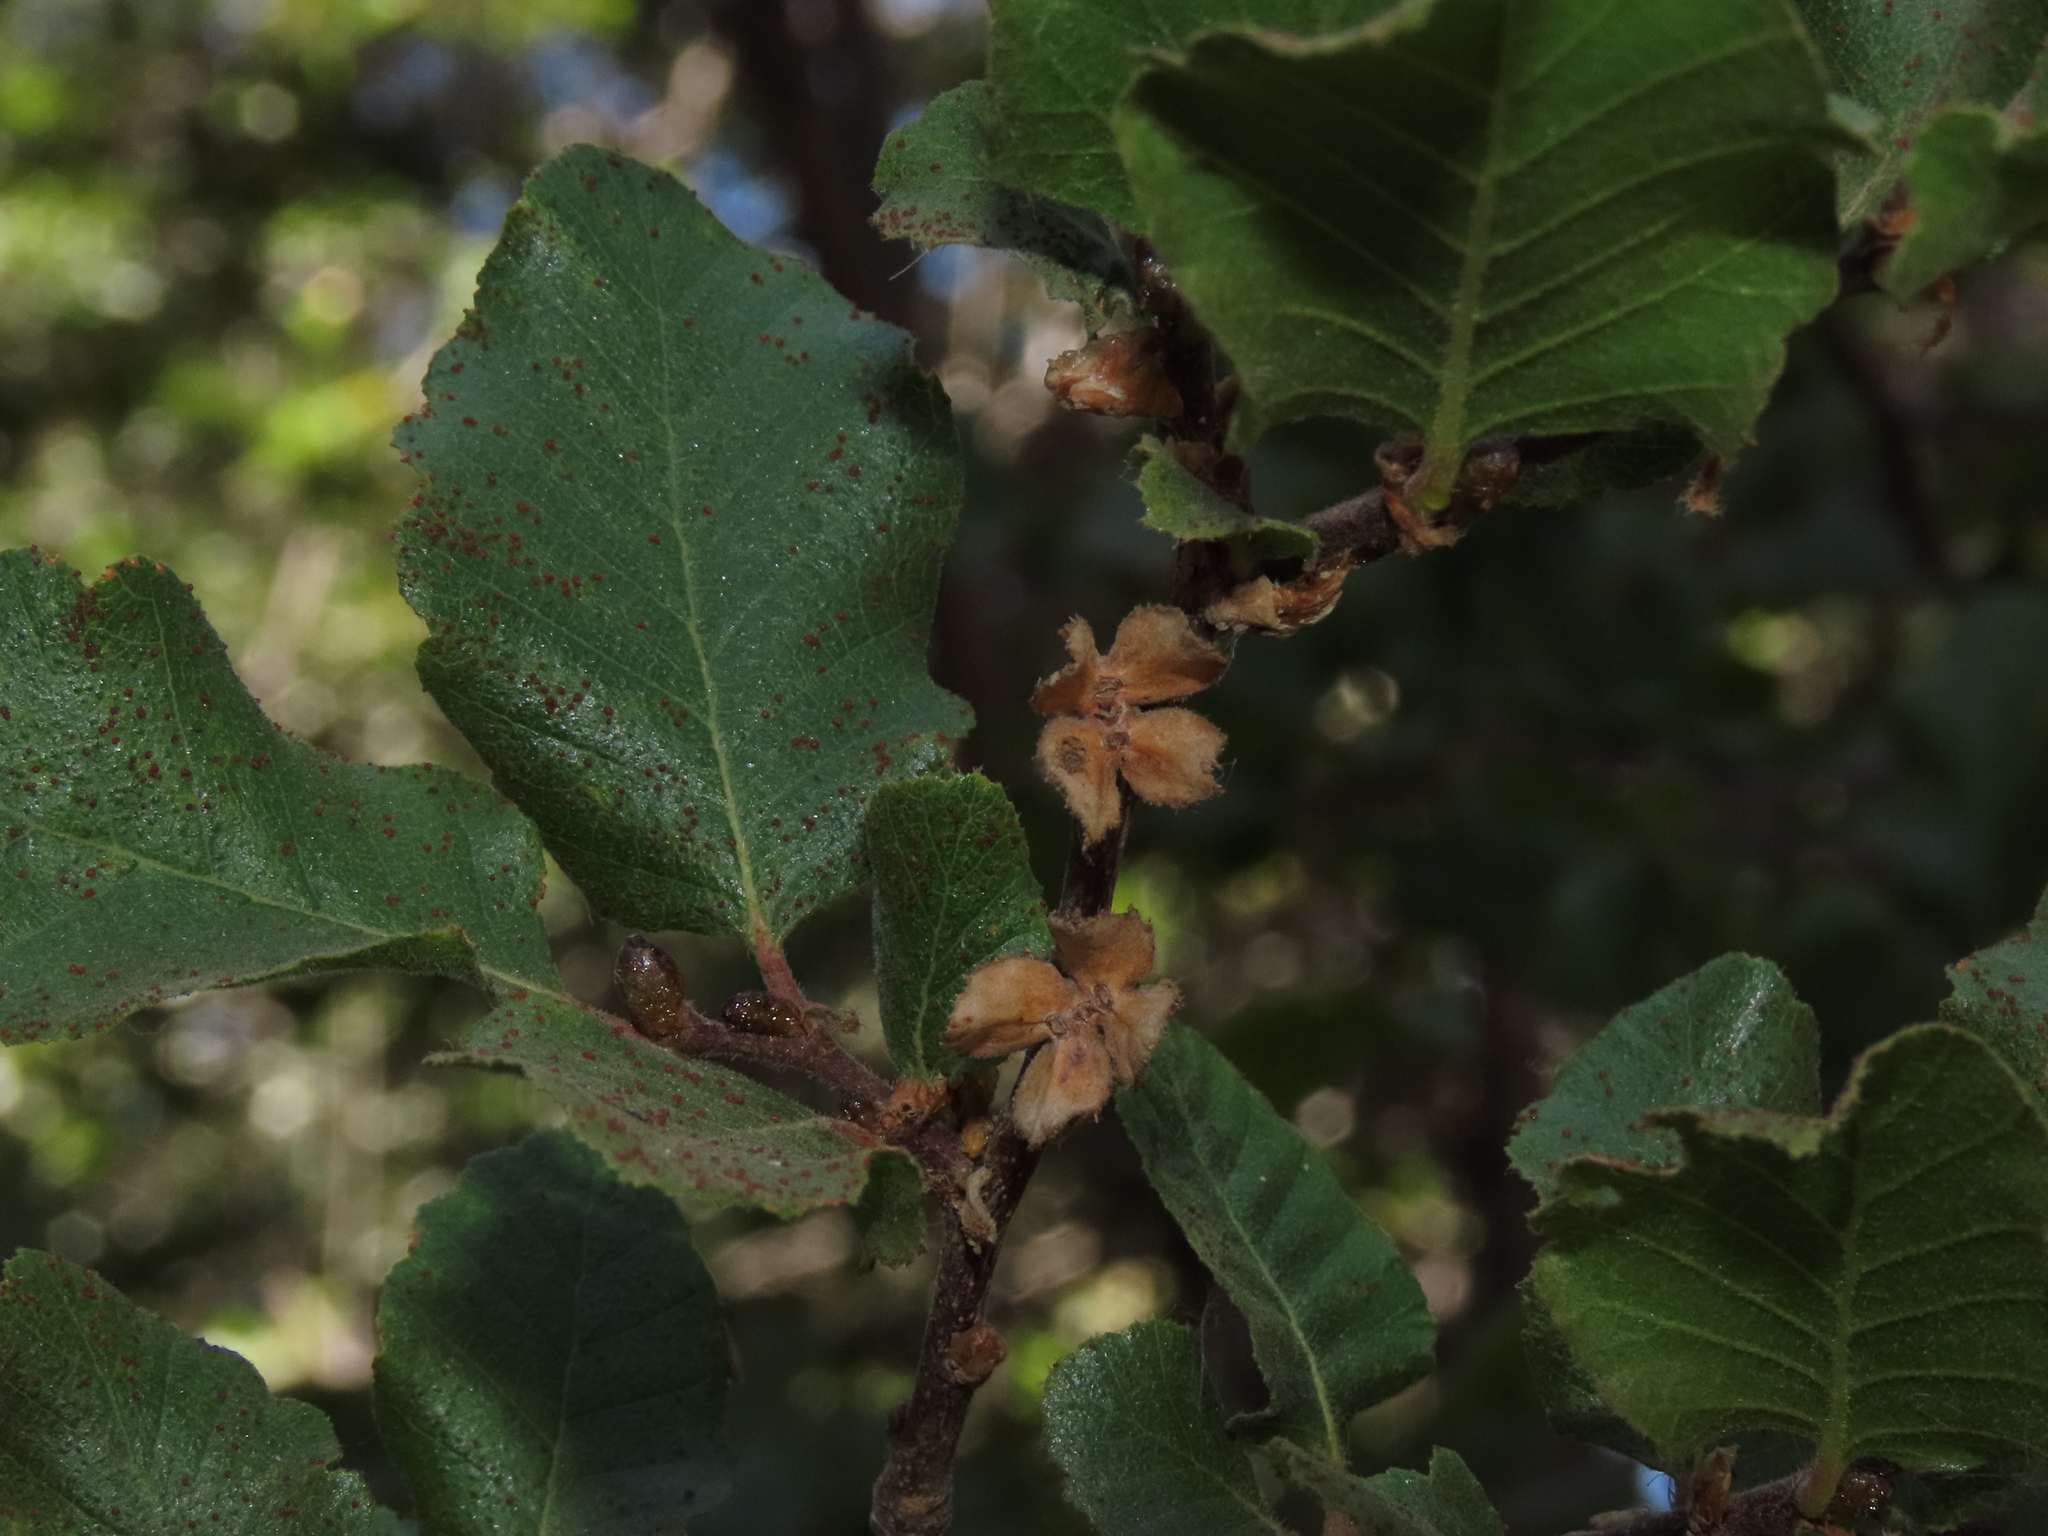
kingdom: Plantae
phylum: Tracheophyta
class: Magnoliopsida
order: Fagales
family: Nothofagaceae
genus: Nothofagus
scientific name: Nothofagus macrocarpa
